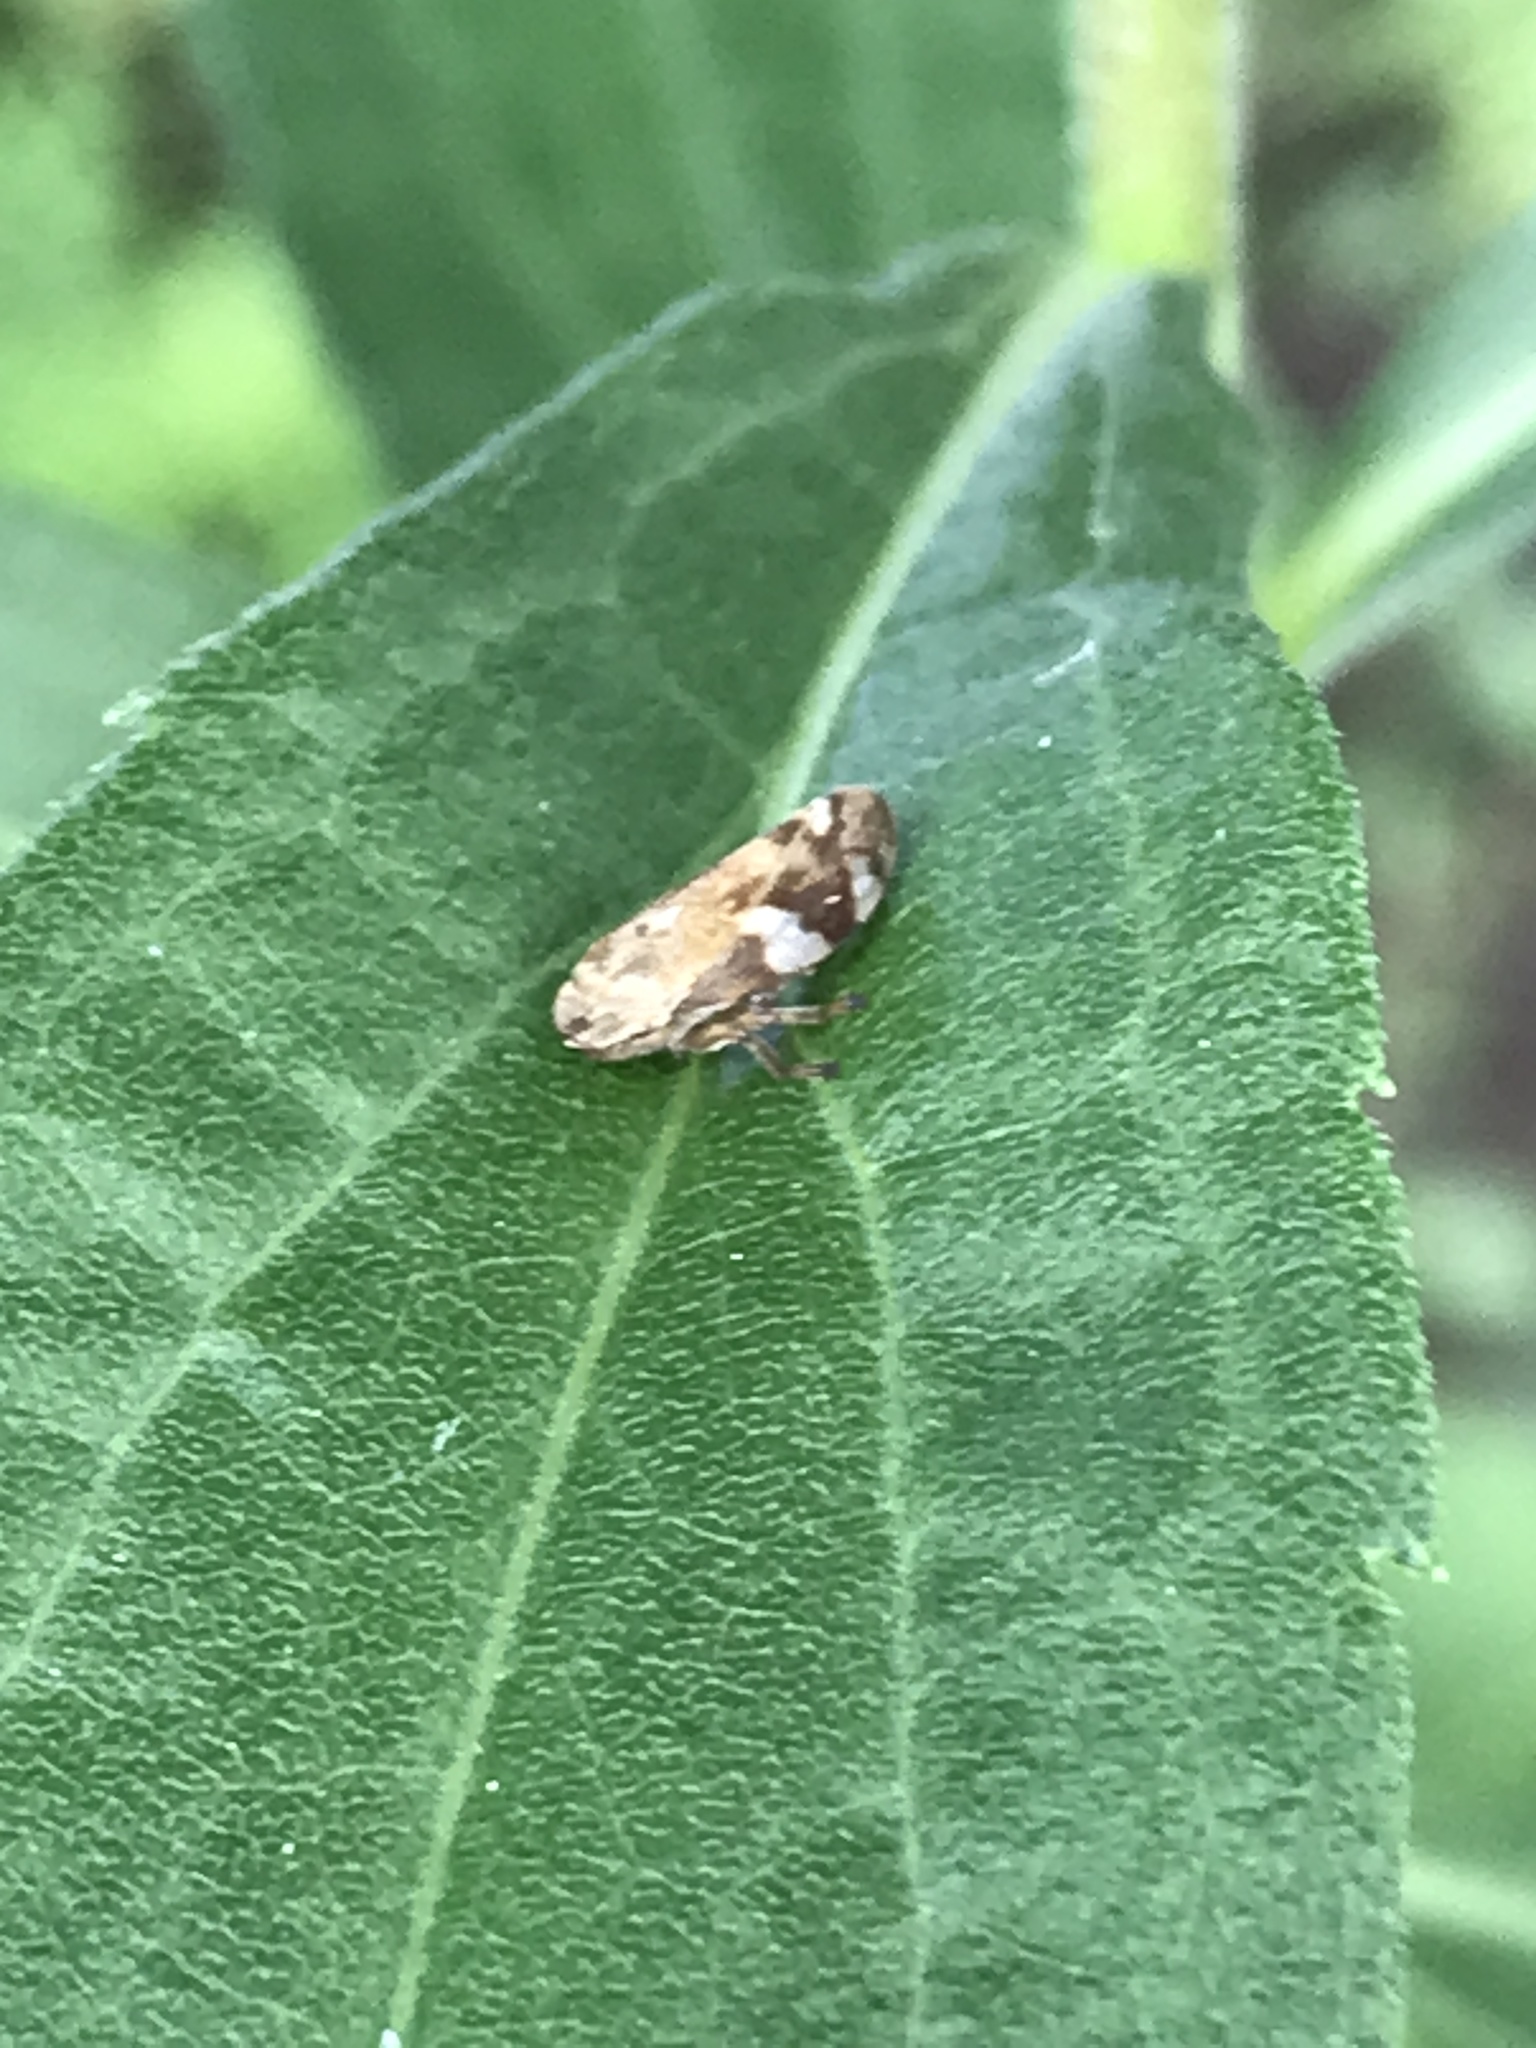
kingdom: Animalia
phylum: Arthropoda
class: Insecta
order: Hemiptera
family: Aphrophoridae
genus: Philaenus
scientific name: Philaenus spumarius
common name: Meadow spittlebug
